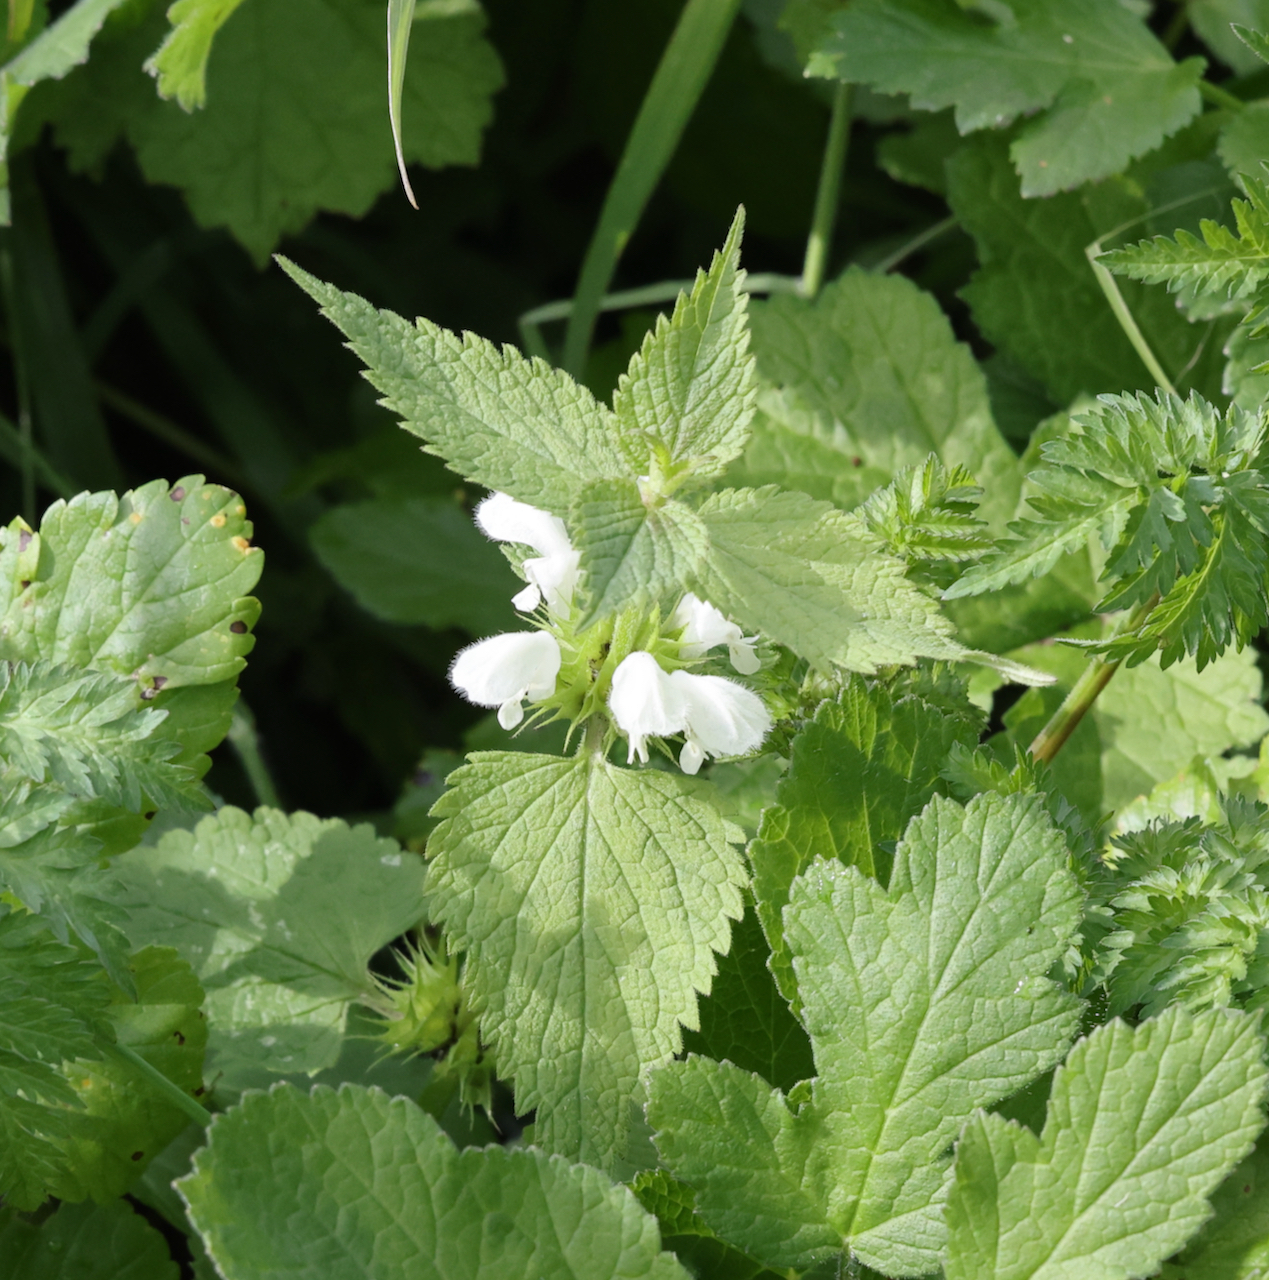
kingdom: Plantae
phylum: Tracheophyta
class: Magnoliopsida
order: Lamiales
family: Lamiaceae
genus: Lamium
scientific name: Lamium album
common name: White dead-nettle
